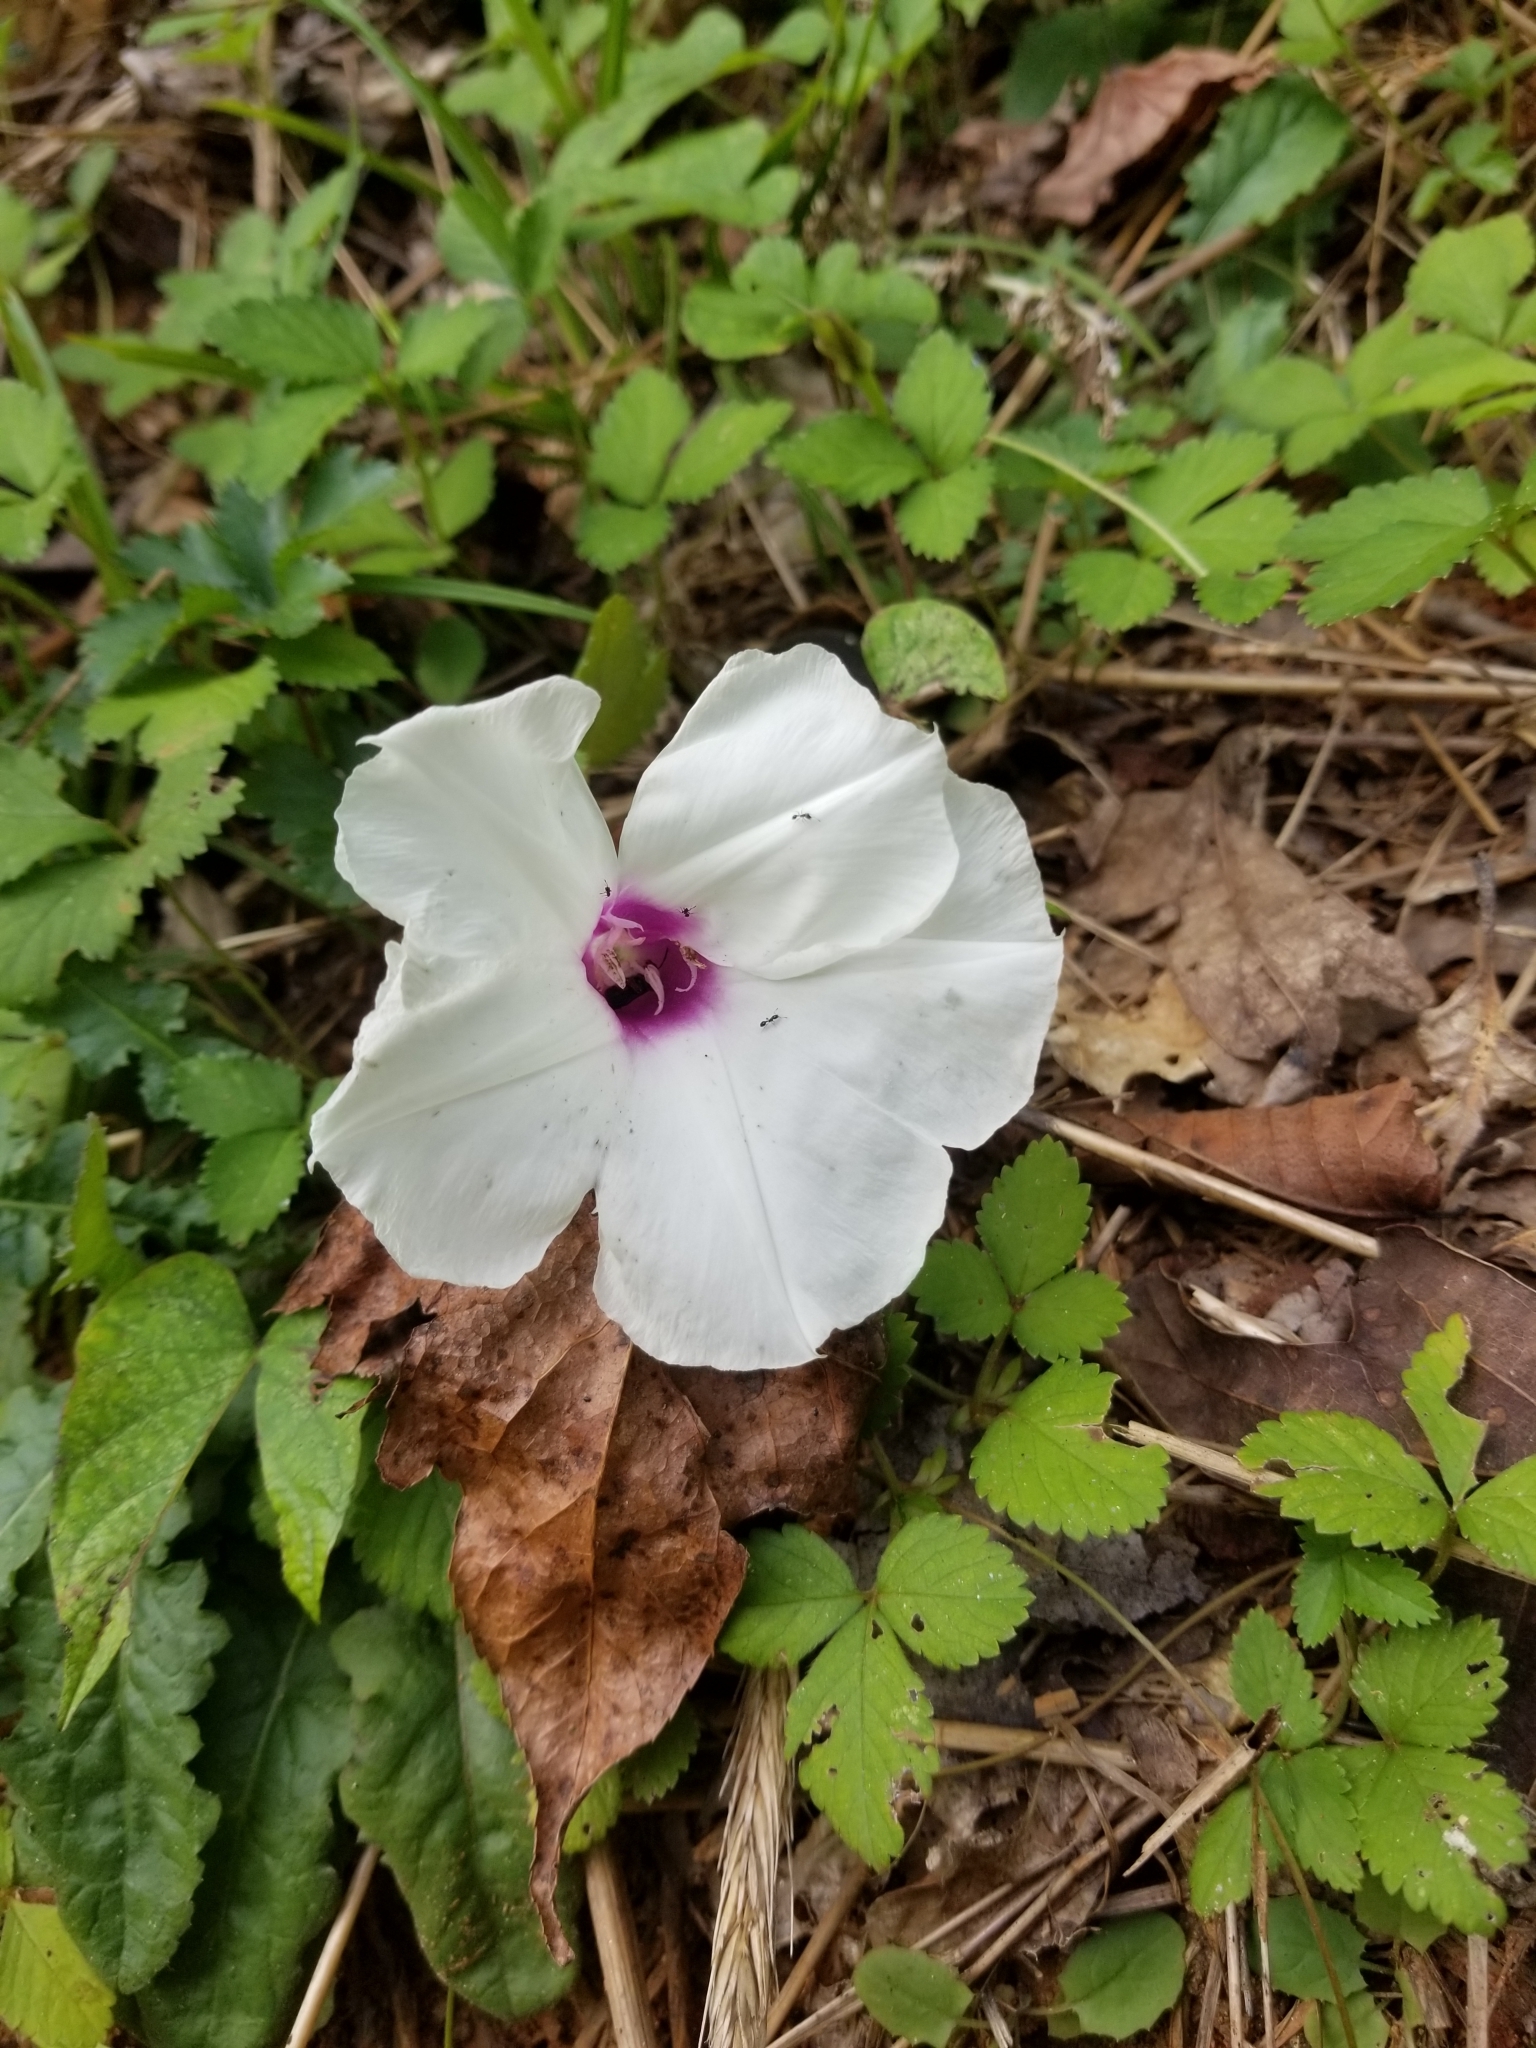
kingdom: Plantae
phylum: Tracheophyta
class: Magnoliopsida
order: Solanales
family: Convolvulaceae
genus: Ipomoea
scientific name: Ipomoea pandurata
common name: Man-of-the-earth
